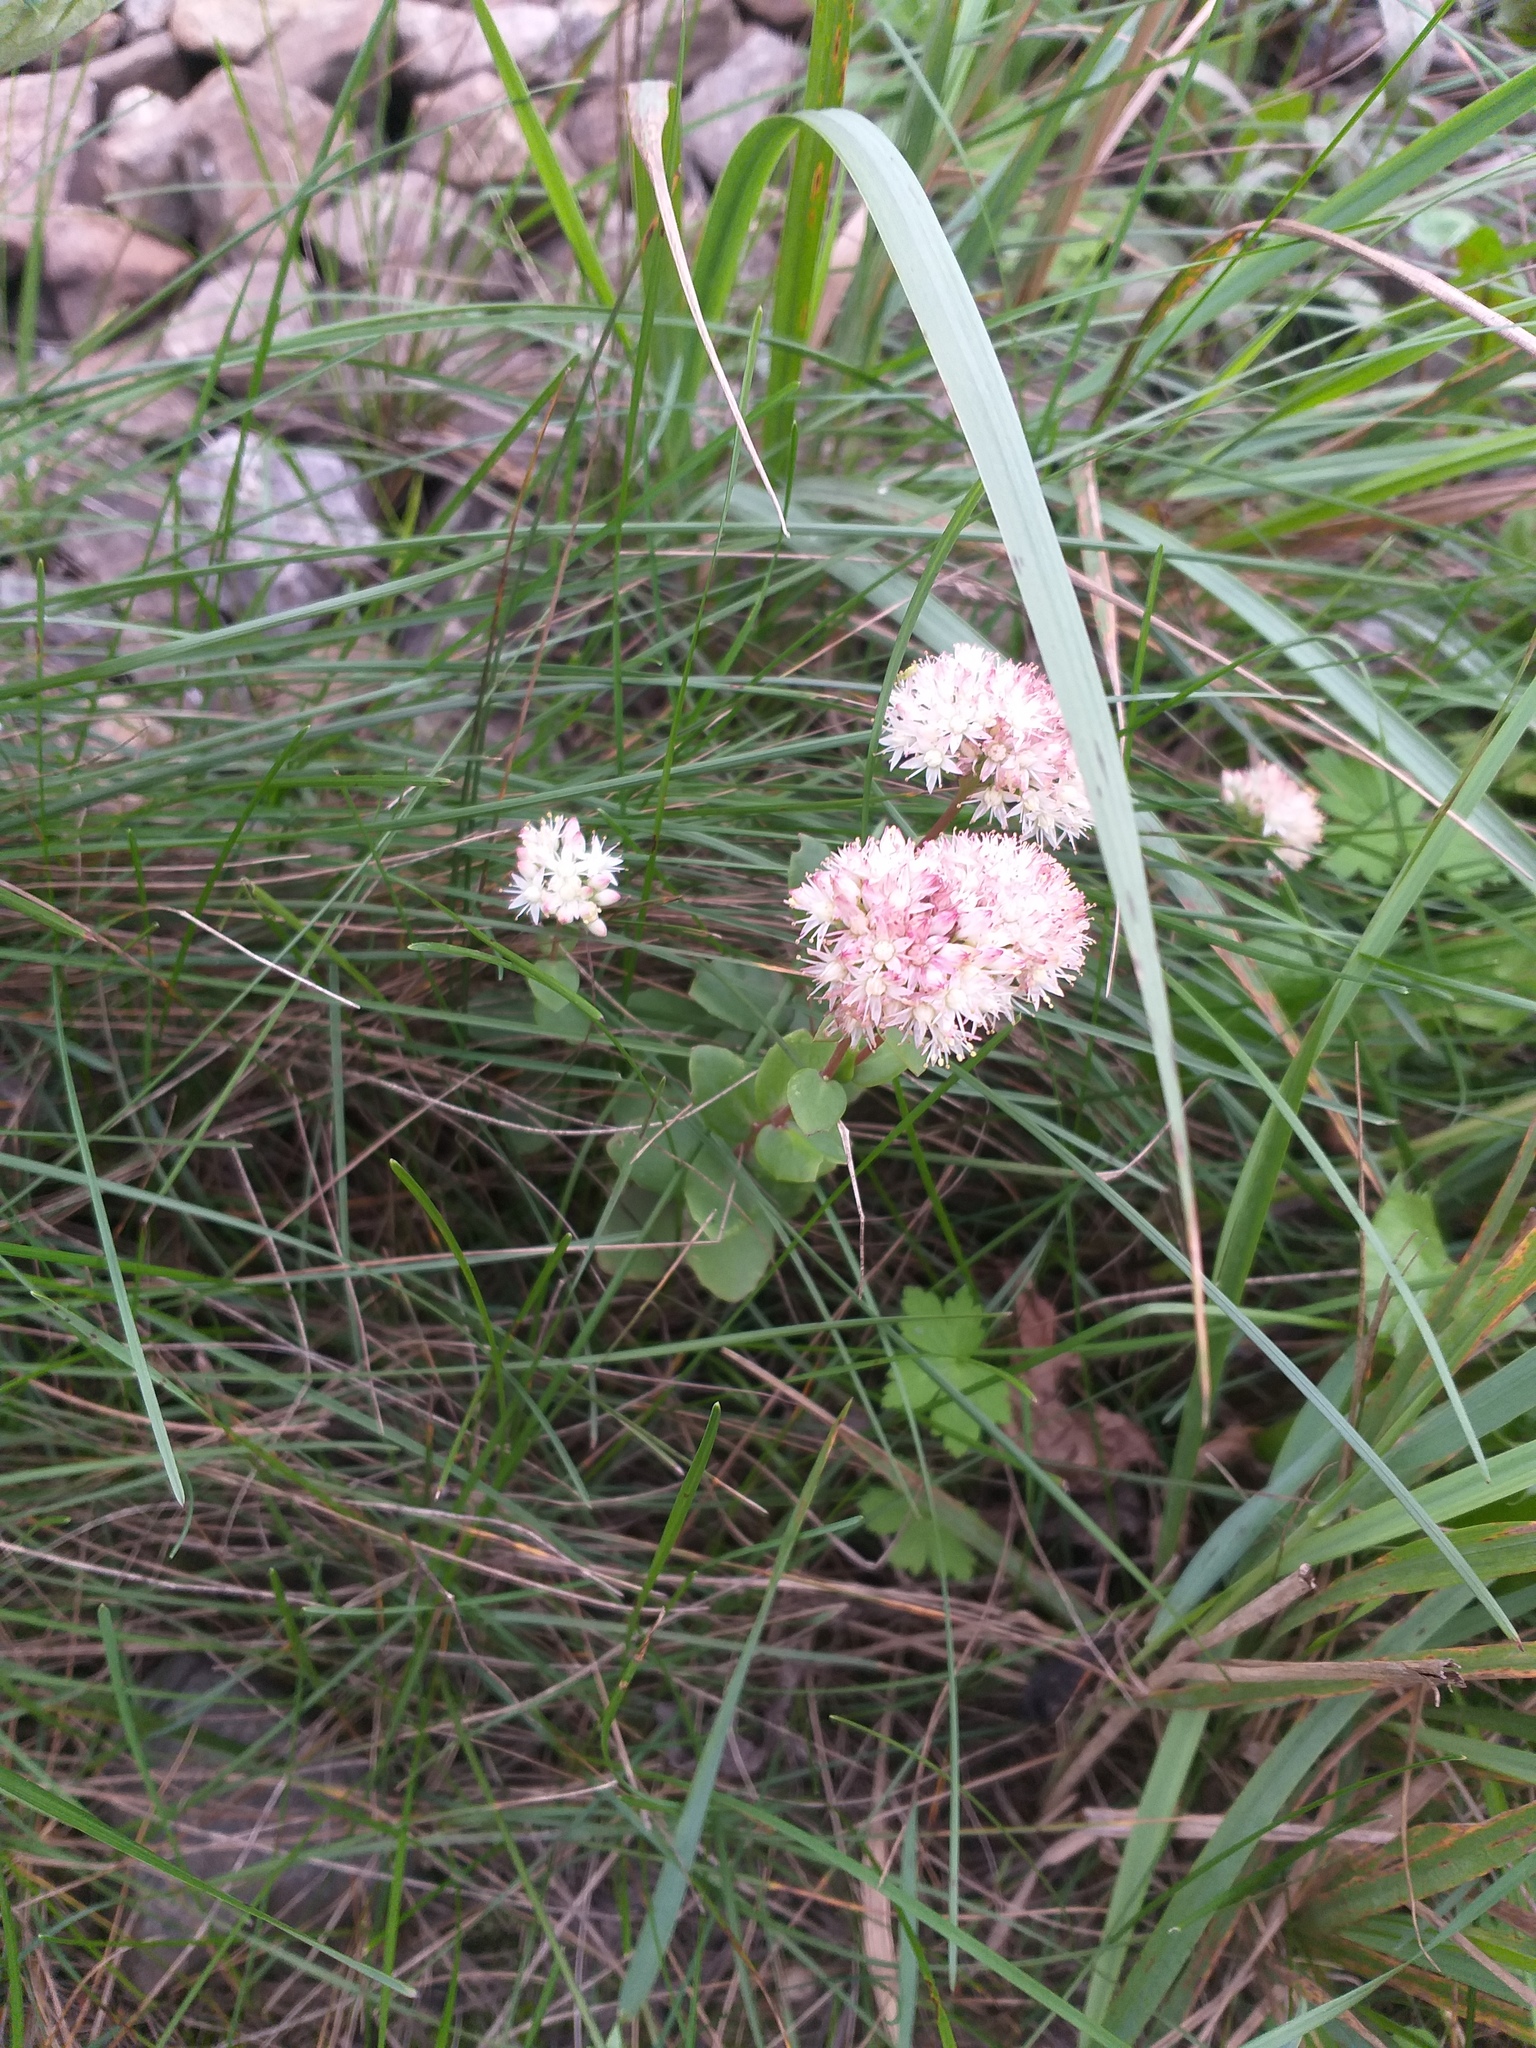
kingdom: Plantae
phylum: Tracheophyta
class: Magnoliopsida
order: Saxifragales
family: Crassulaceae
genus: Hylotelephium
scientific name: Hylotelephium maximum
